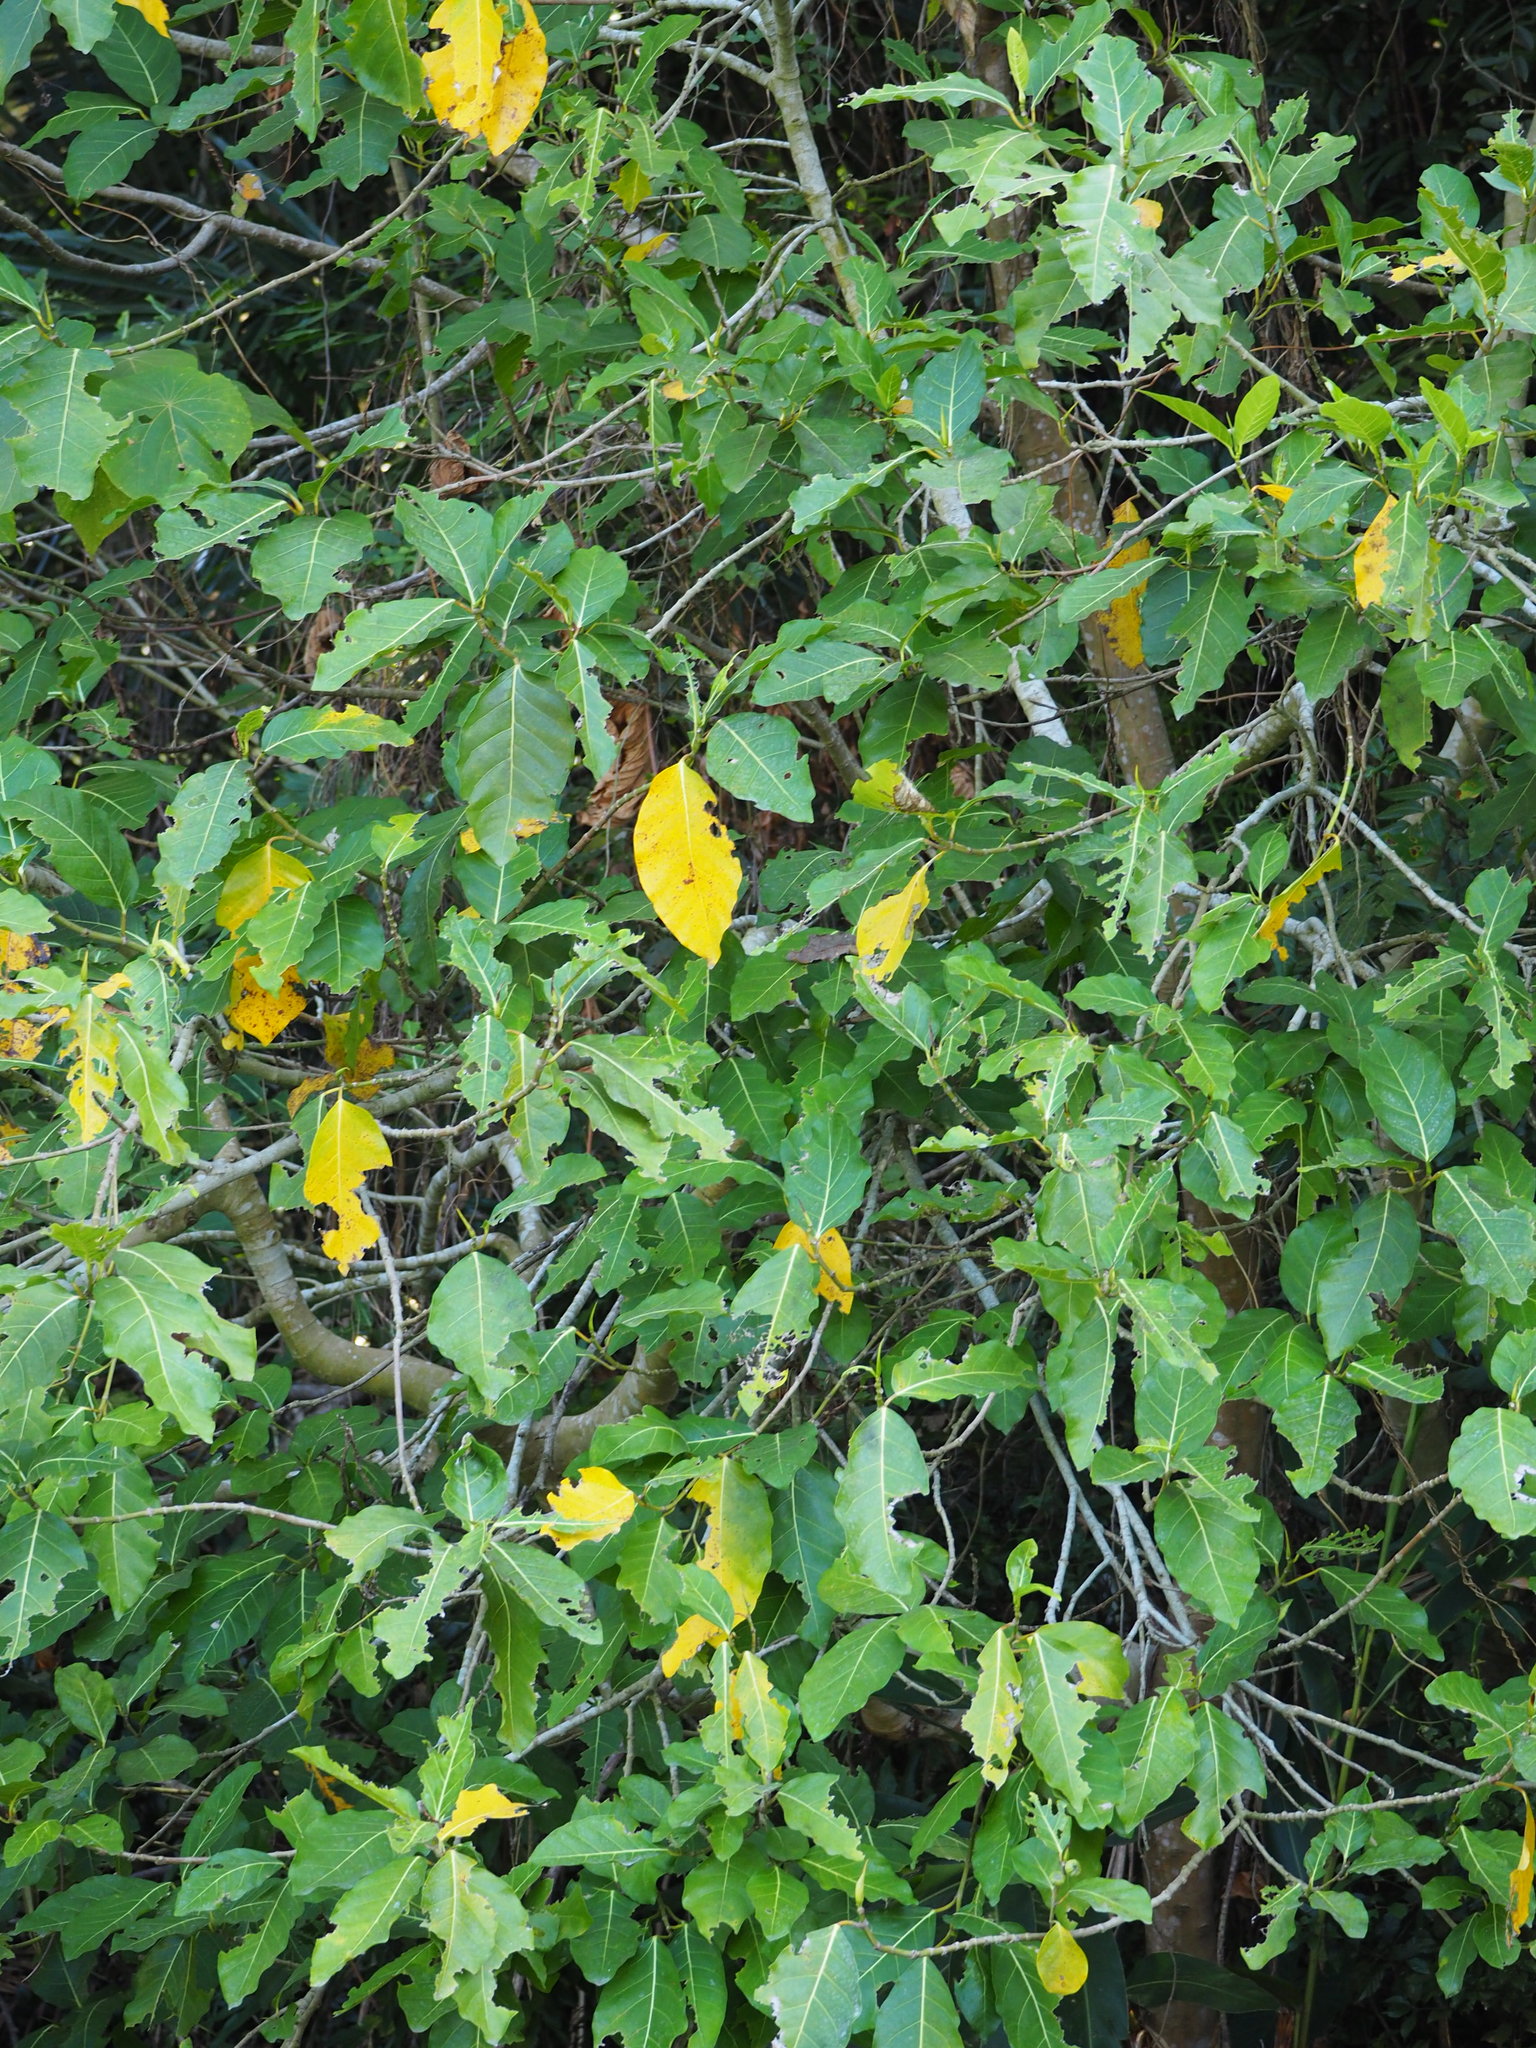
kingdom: Plantae
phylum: Tracheophyta
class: Magnoliopsida
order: Rosales
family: Moraceae
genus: Ficus
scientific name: Ficus septica
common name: Septic fig
